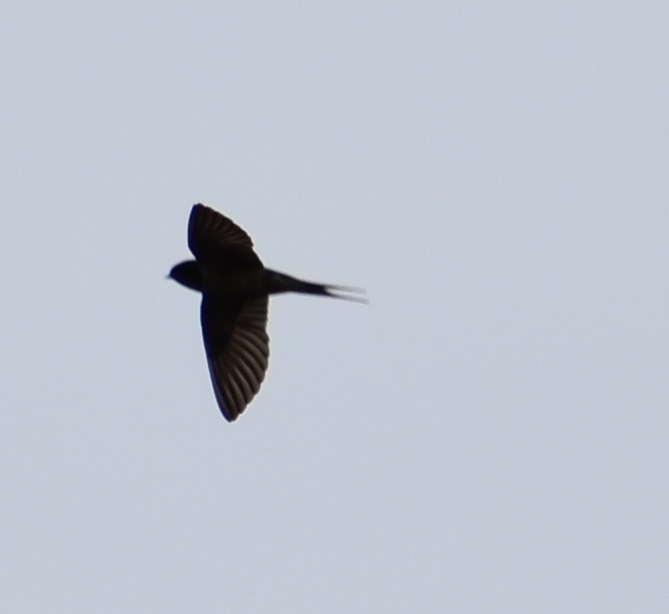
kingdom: Animalia
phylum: Chordata
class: Aves
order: Passeriformes
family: Hirundinidae
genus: Hirundo
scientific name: Hirundo rustica
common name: Barn swallow
